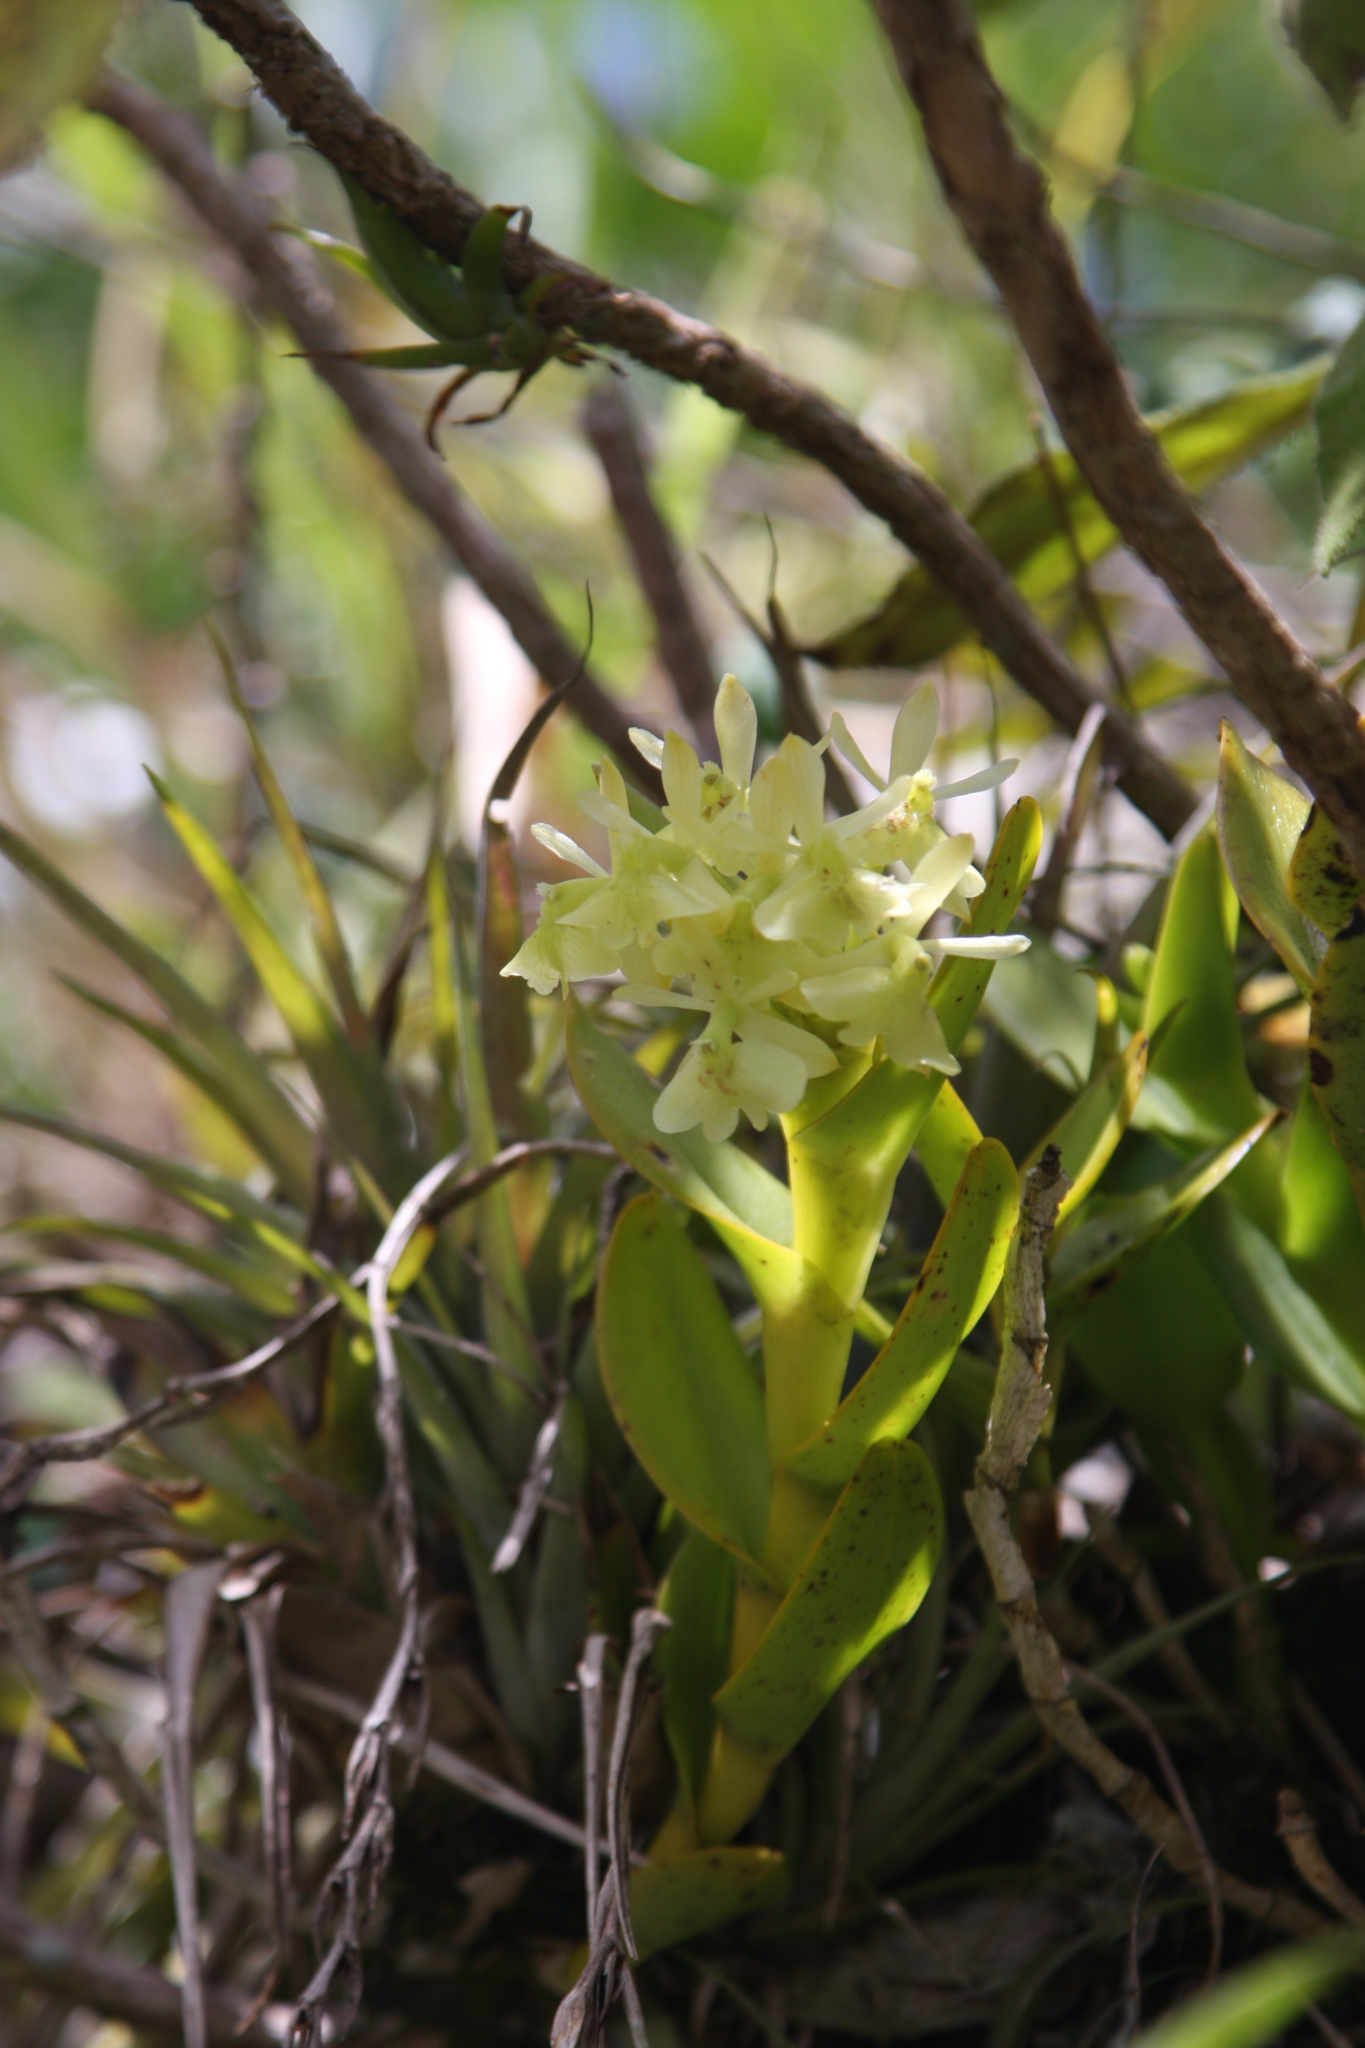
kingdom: Plantae
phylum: Tracheophyta
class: Liliopsida
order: Asparagales
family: Orchidaceae
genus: Epidendrum
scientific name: Epidendrum difforme
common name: Umbrella epidendrum
